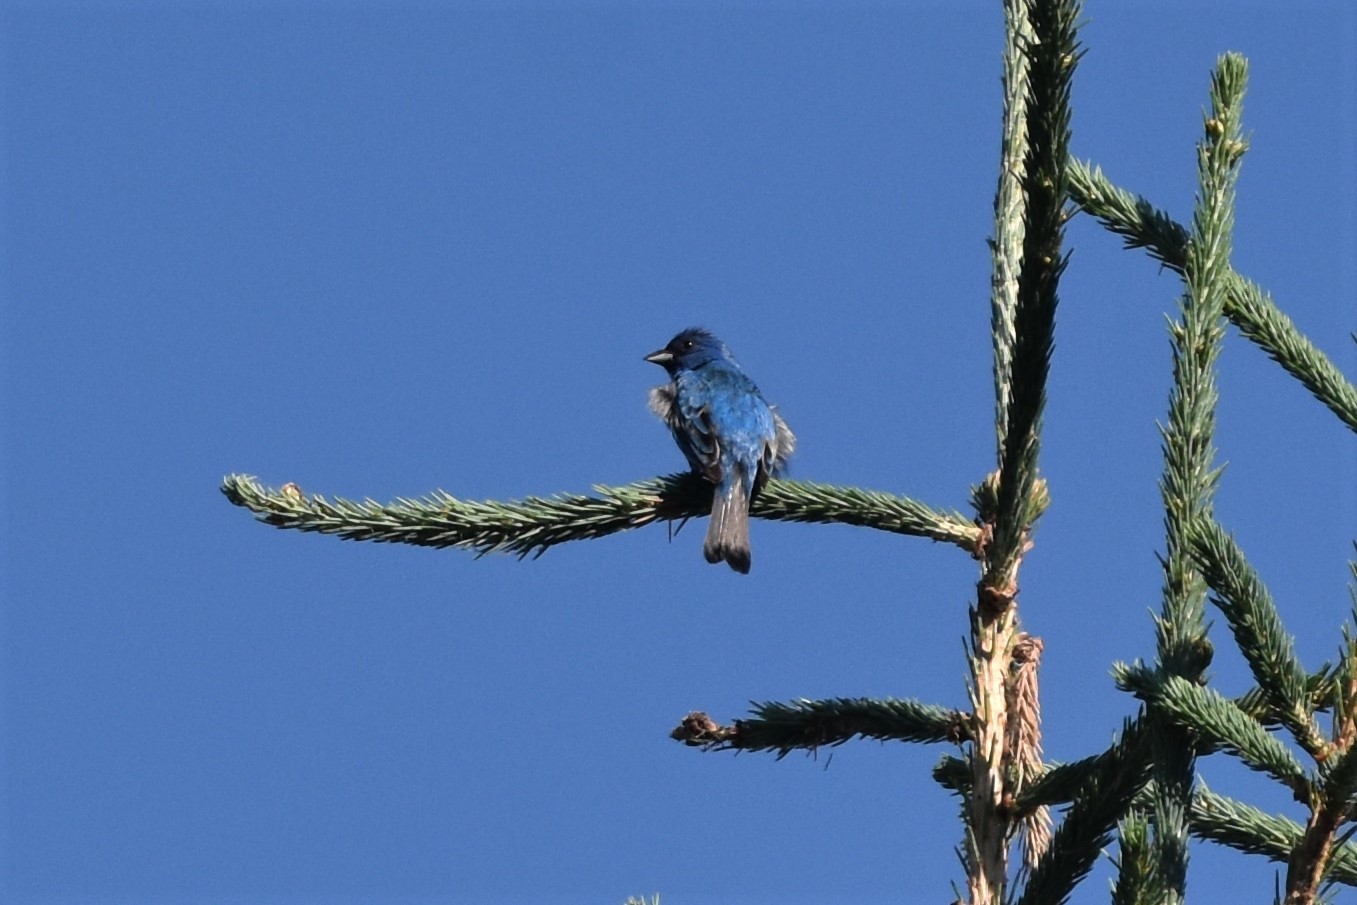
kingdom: Animalia
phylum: Chordata
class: Aves
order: Passeriformes
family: Cardinalidae
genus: Passerina
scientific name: Passerina cyanea
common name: Indigo bunting
